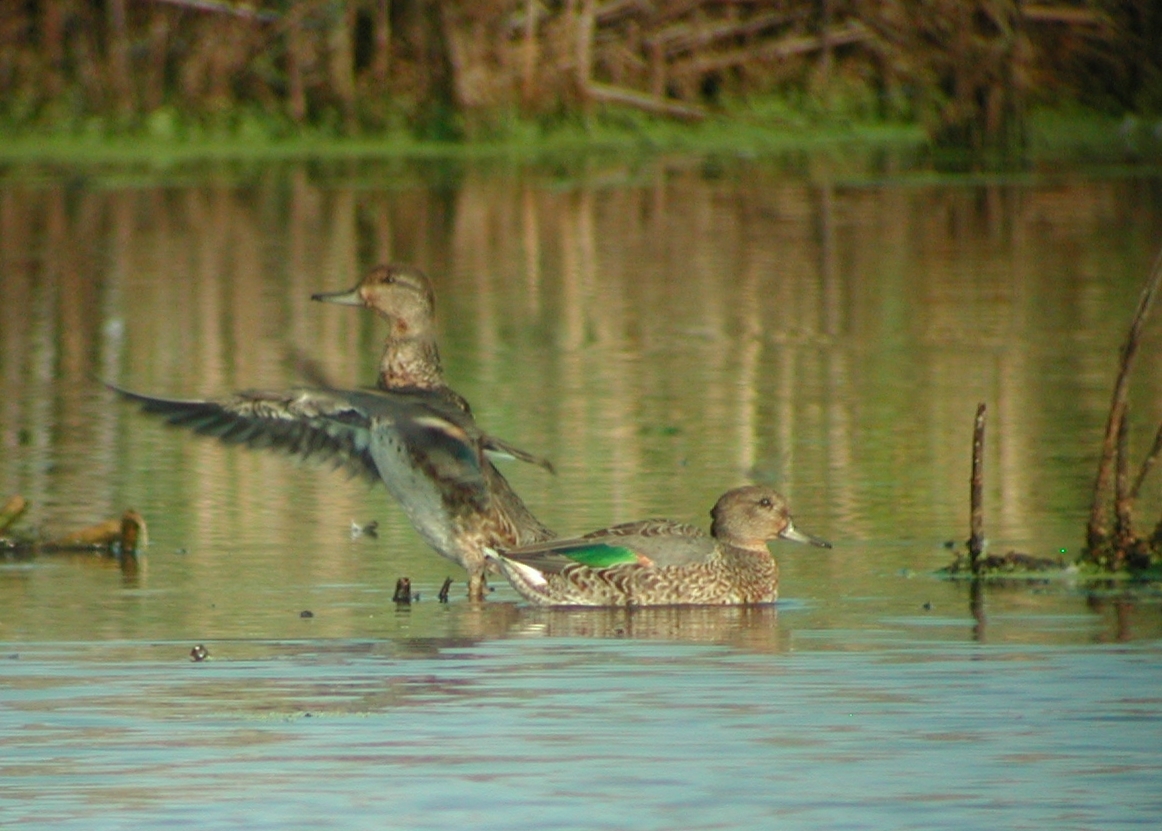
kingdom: Animalia
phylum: Chordata
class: Aves
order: Anseriformes
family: Anatidae
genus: Anas
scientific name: Anas crecca
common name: Eurasian teal
